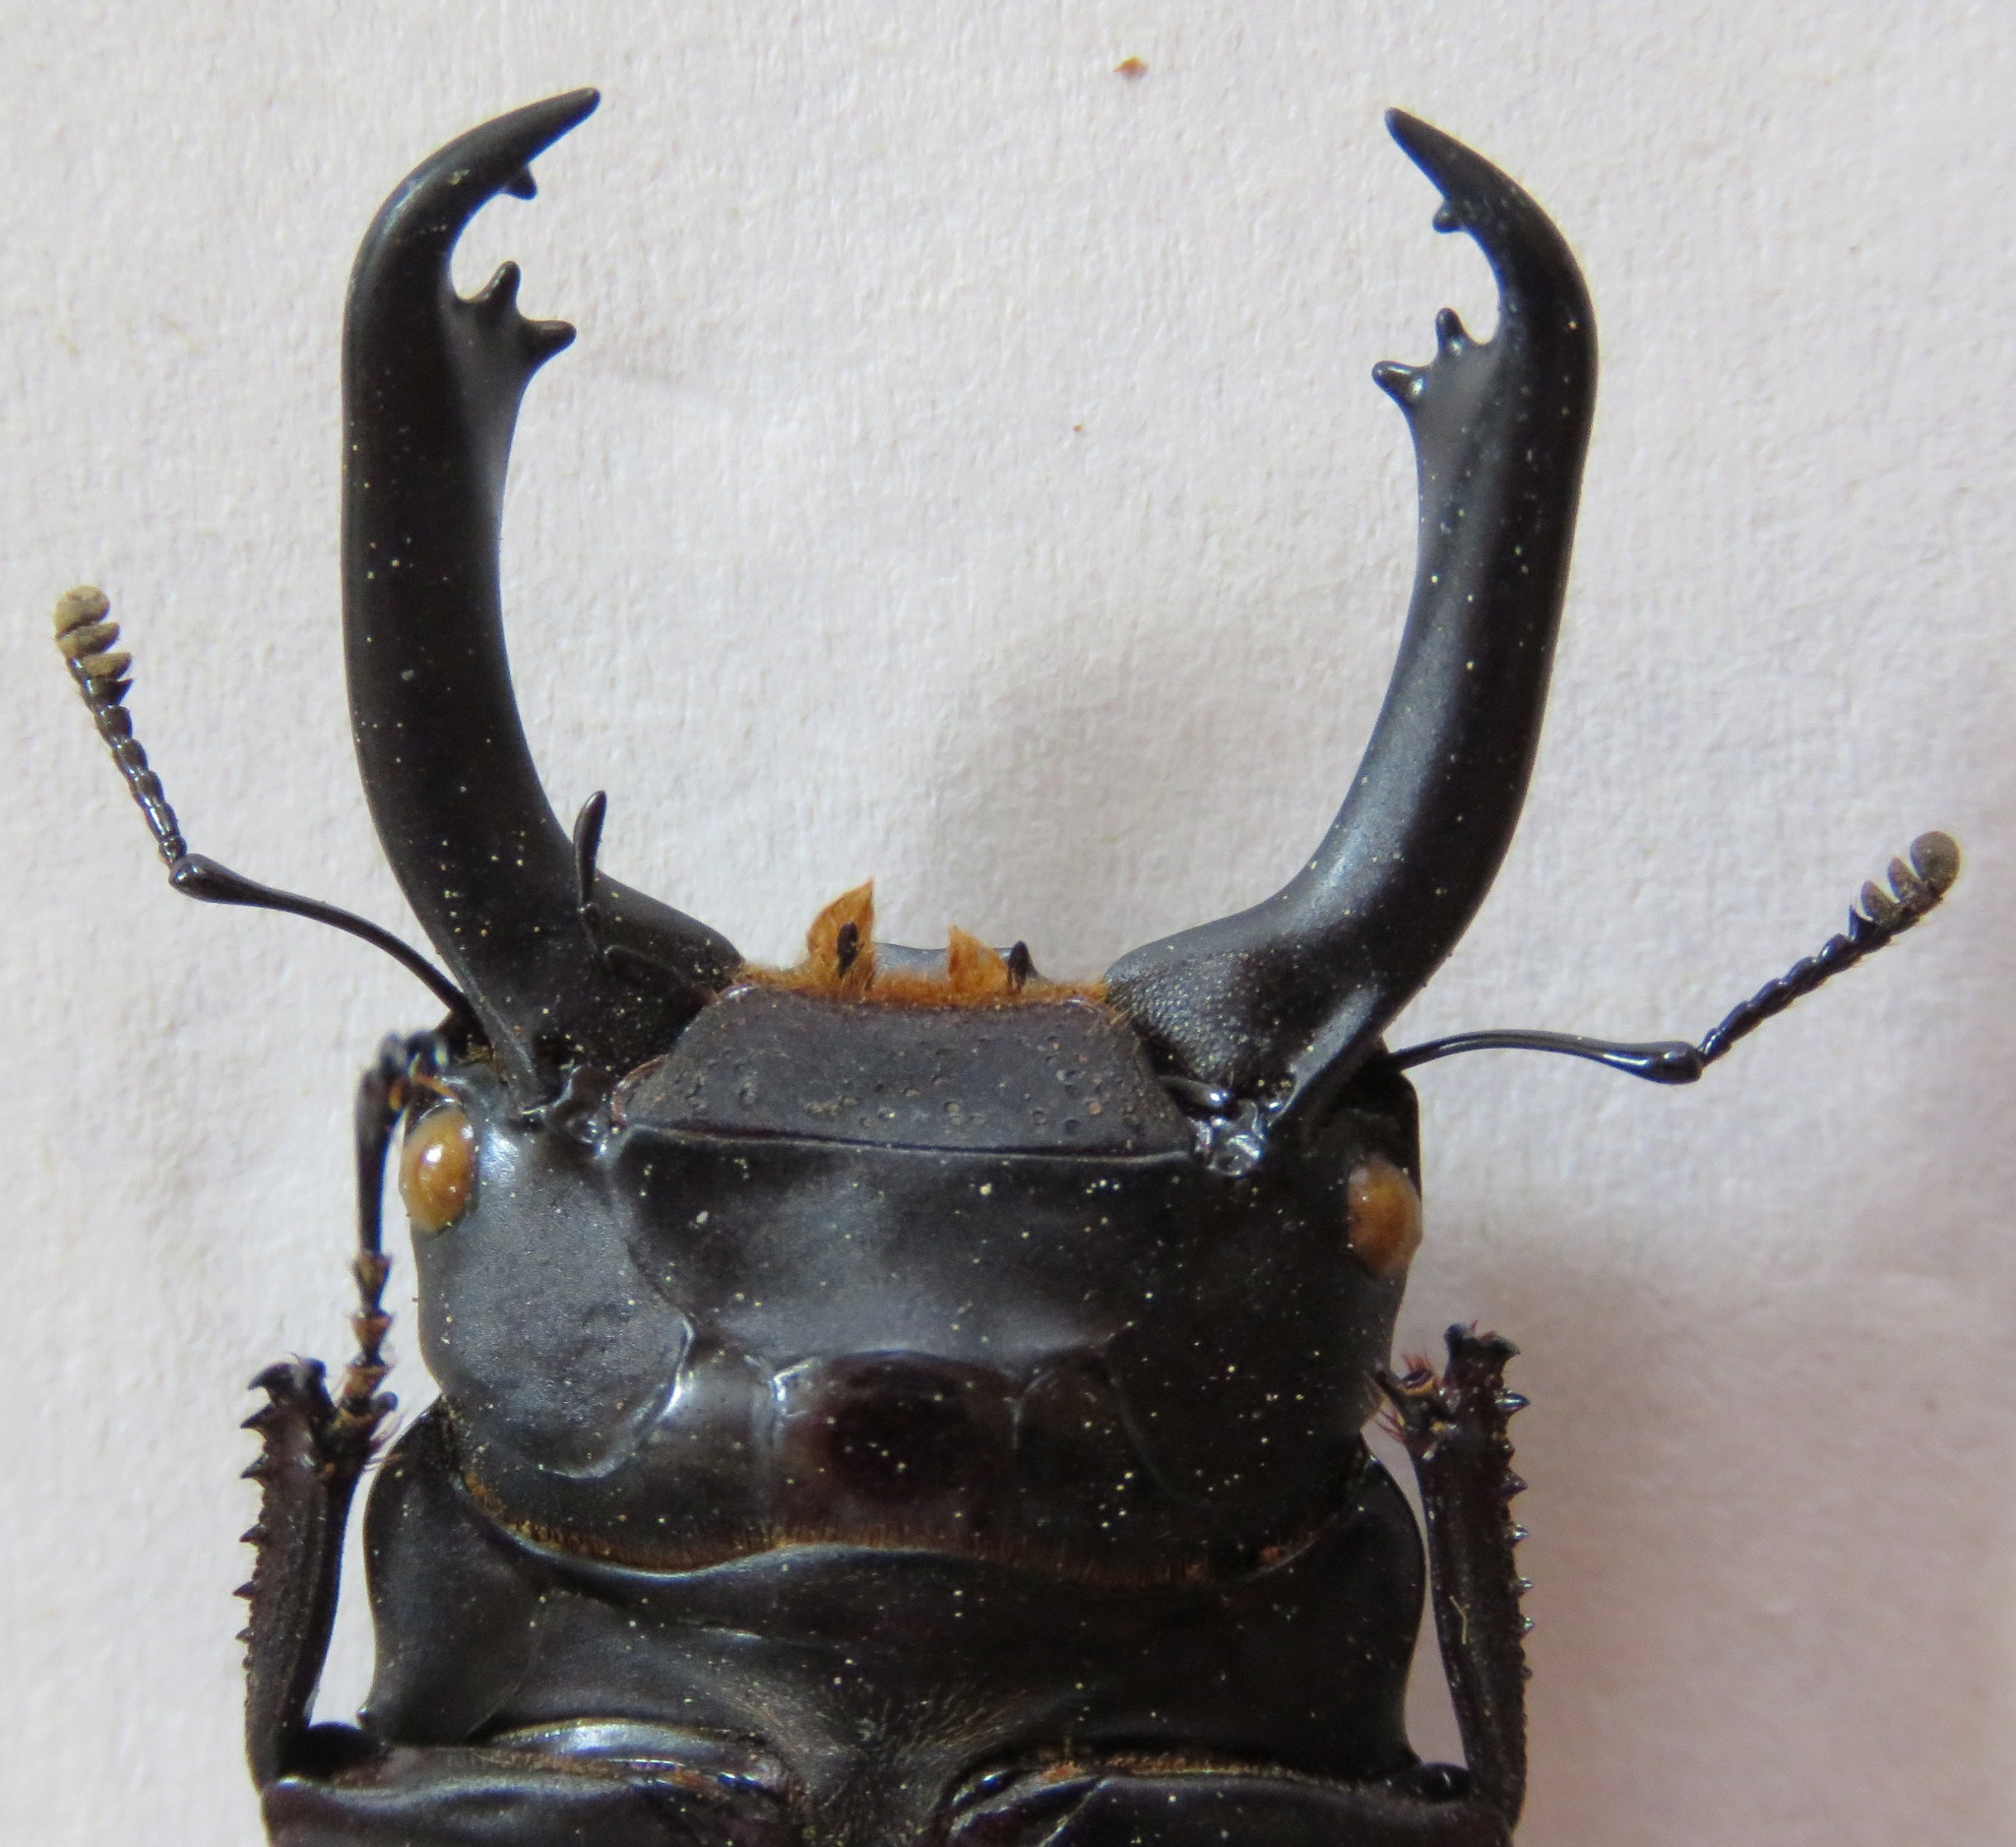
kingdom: Animalia
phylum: Arthropoda
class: Insecta
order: Coleoptera
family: Lucanidae
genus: Dorcus
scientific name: Dorcus cervulus
